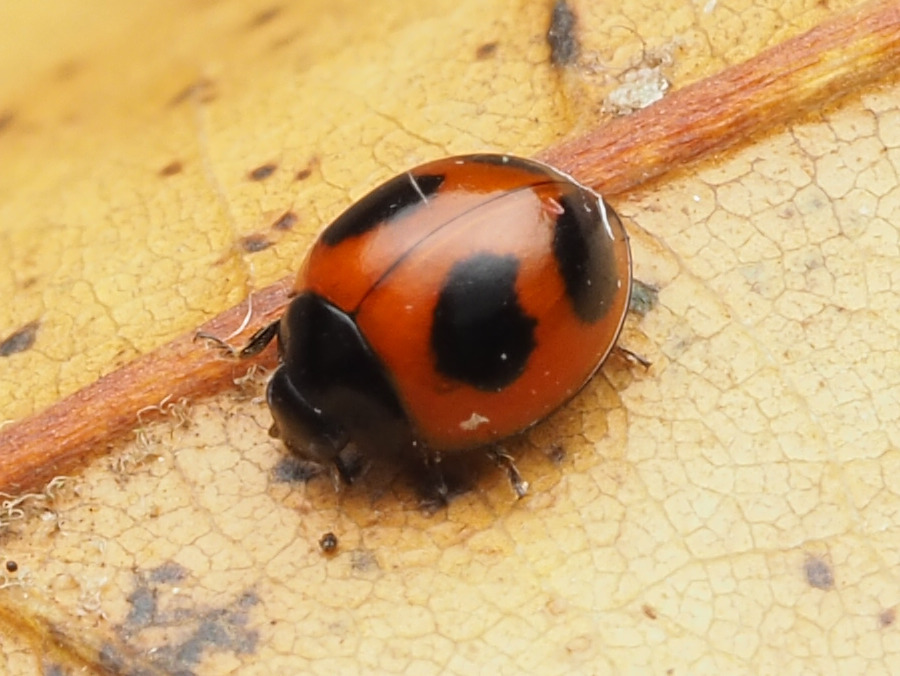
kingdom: Animalia
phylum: Arthropoda
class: Insecta
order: Coleoptera
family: Coccinellidae
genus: Exochomus
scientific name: Exochomus childreni
